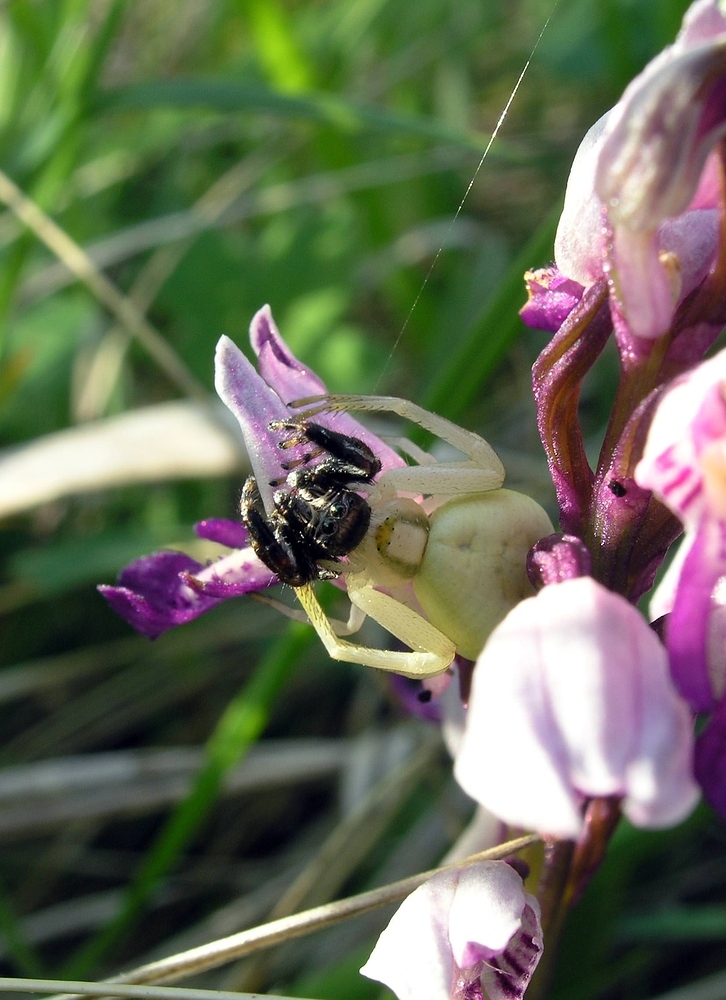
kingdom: Animalia
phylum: Arthropoda
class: Arachnida
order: Araneae
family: Thomisidae
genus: Misumena
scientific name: Misumena vatia
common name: Goldenrod crab spider
